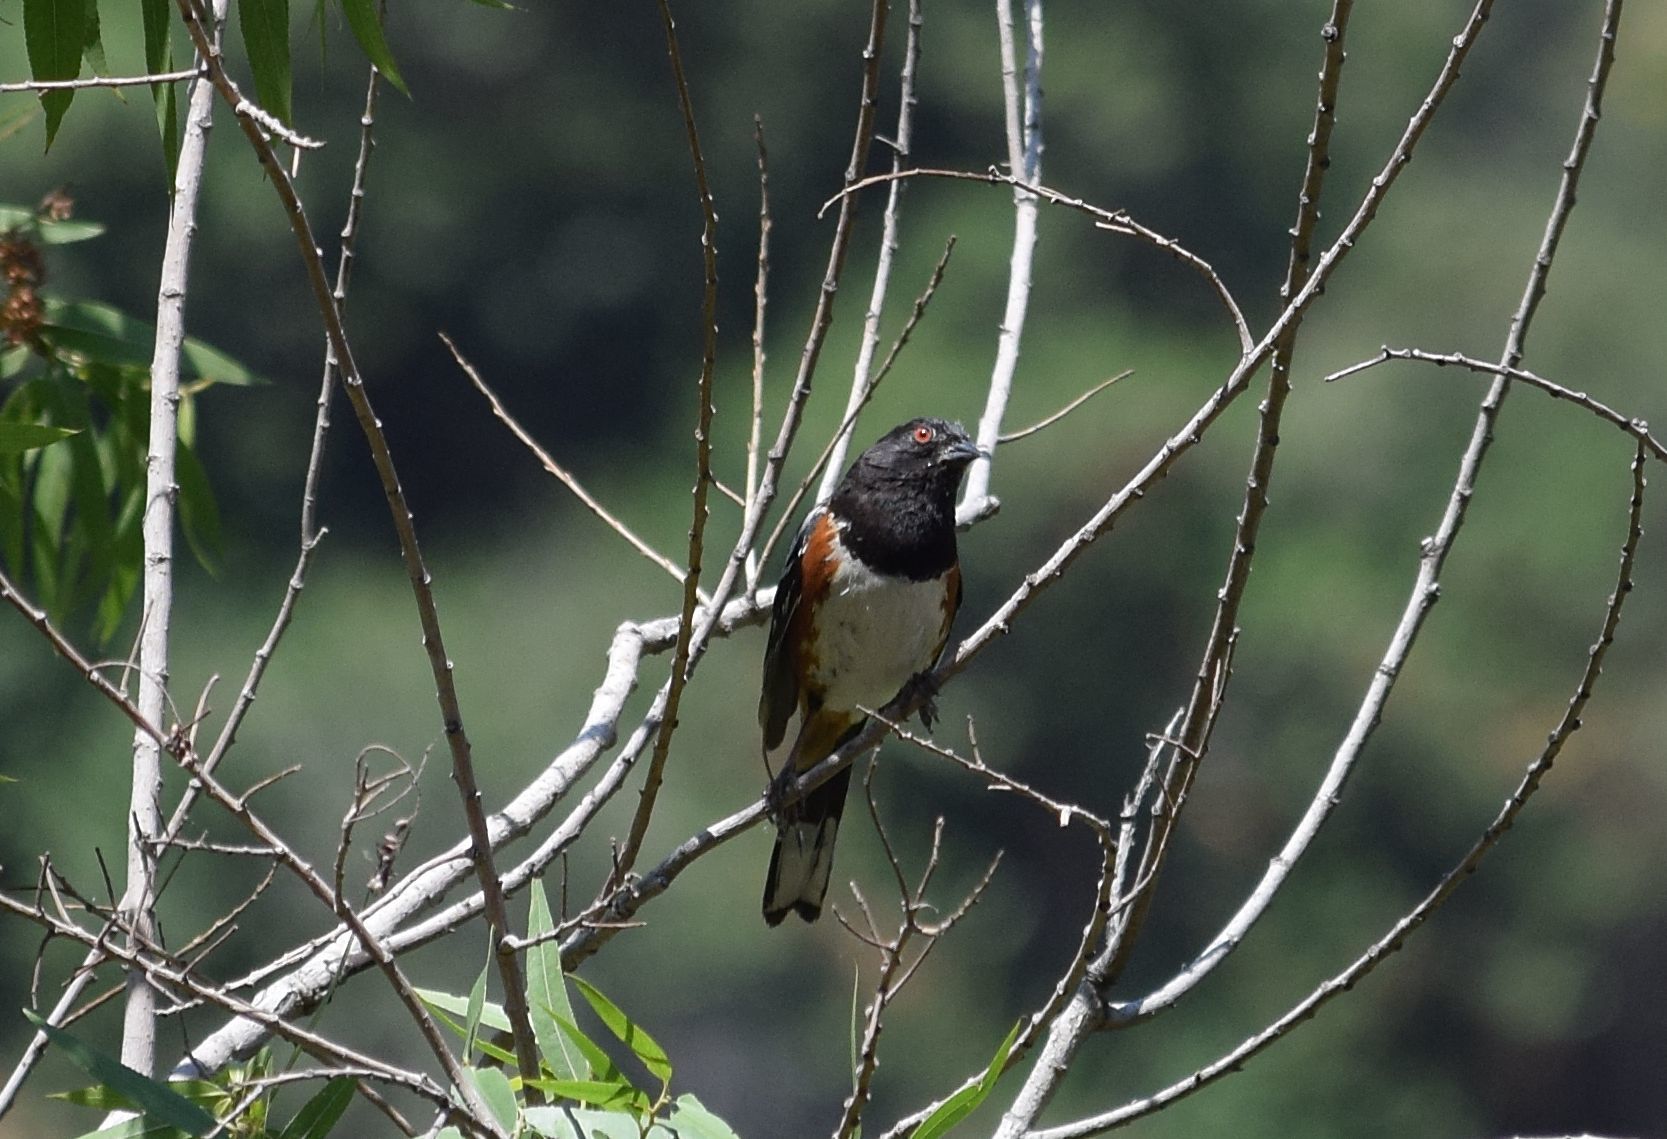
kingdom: Animalia
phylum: Chordata
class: Aves
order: Passeriformes
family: Passerellidae
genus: Pipilo
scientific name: Pipilo maculatus
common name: Spotted towhee
